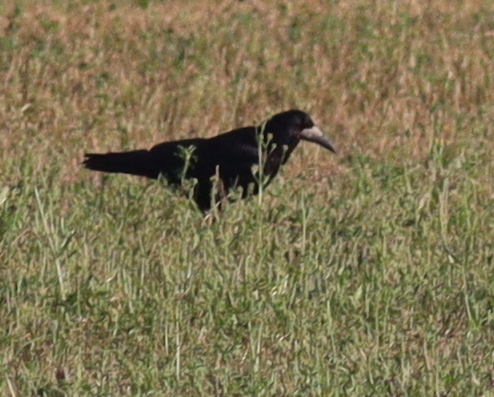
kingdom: Animalia
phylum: Chordata
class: Aves
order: Passeriformes
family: Corvidae
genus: Corvus
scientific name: Corvus frugilegus
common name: Rook
